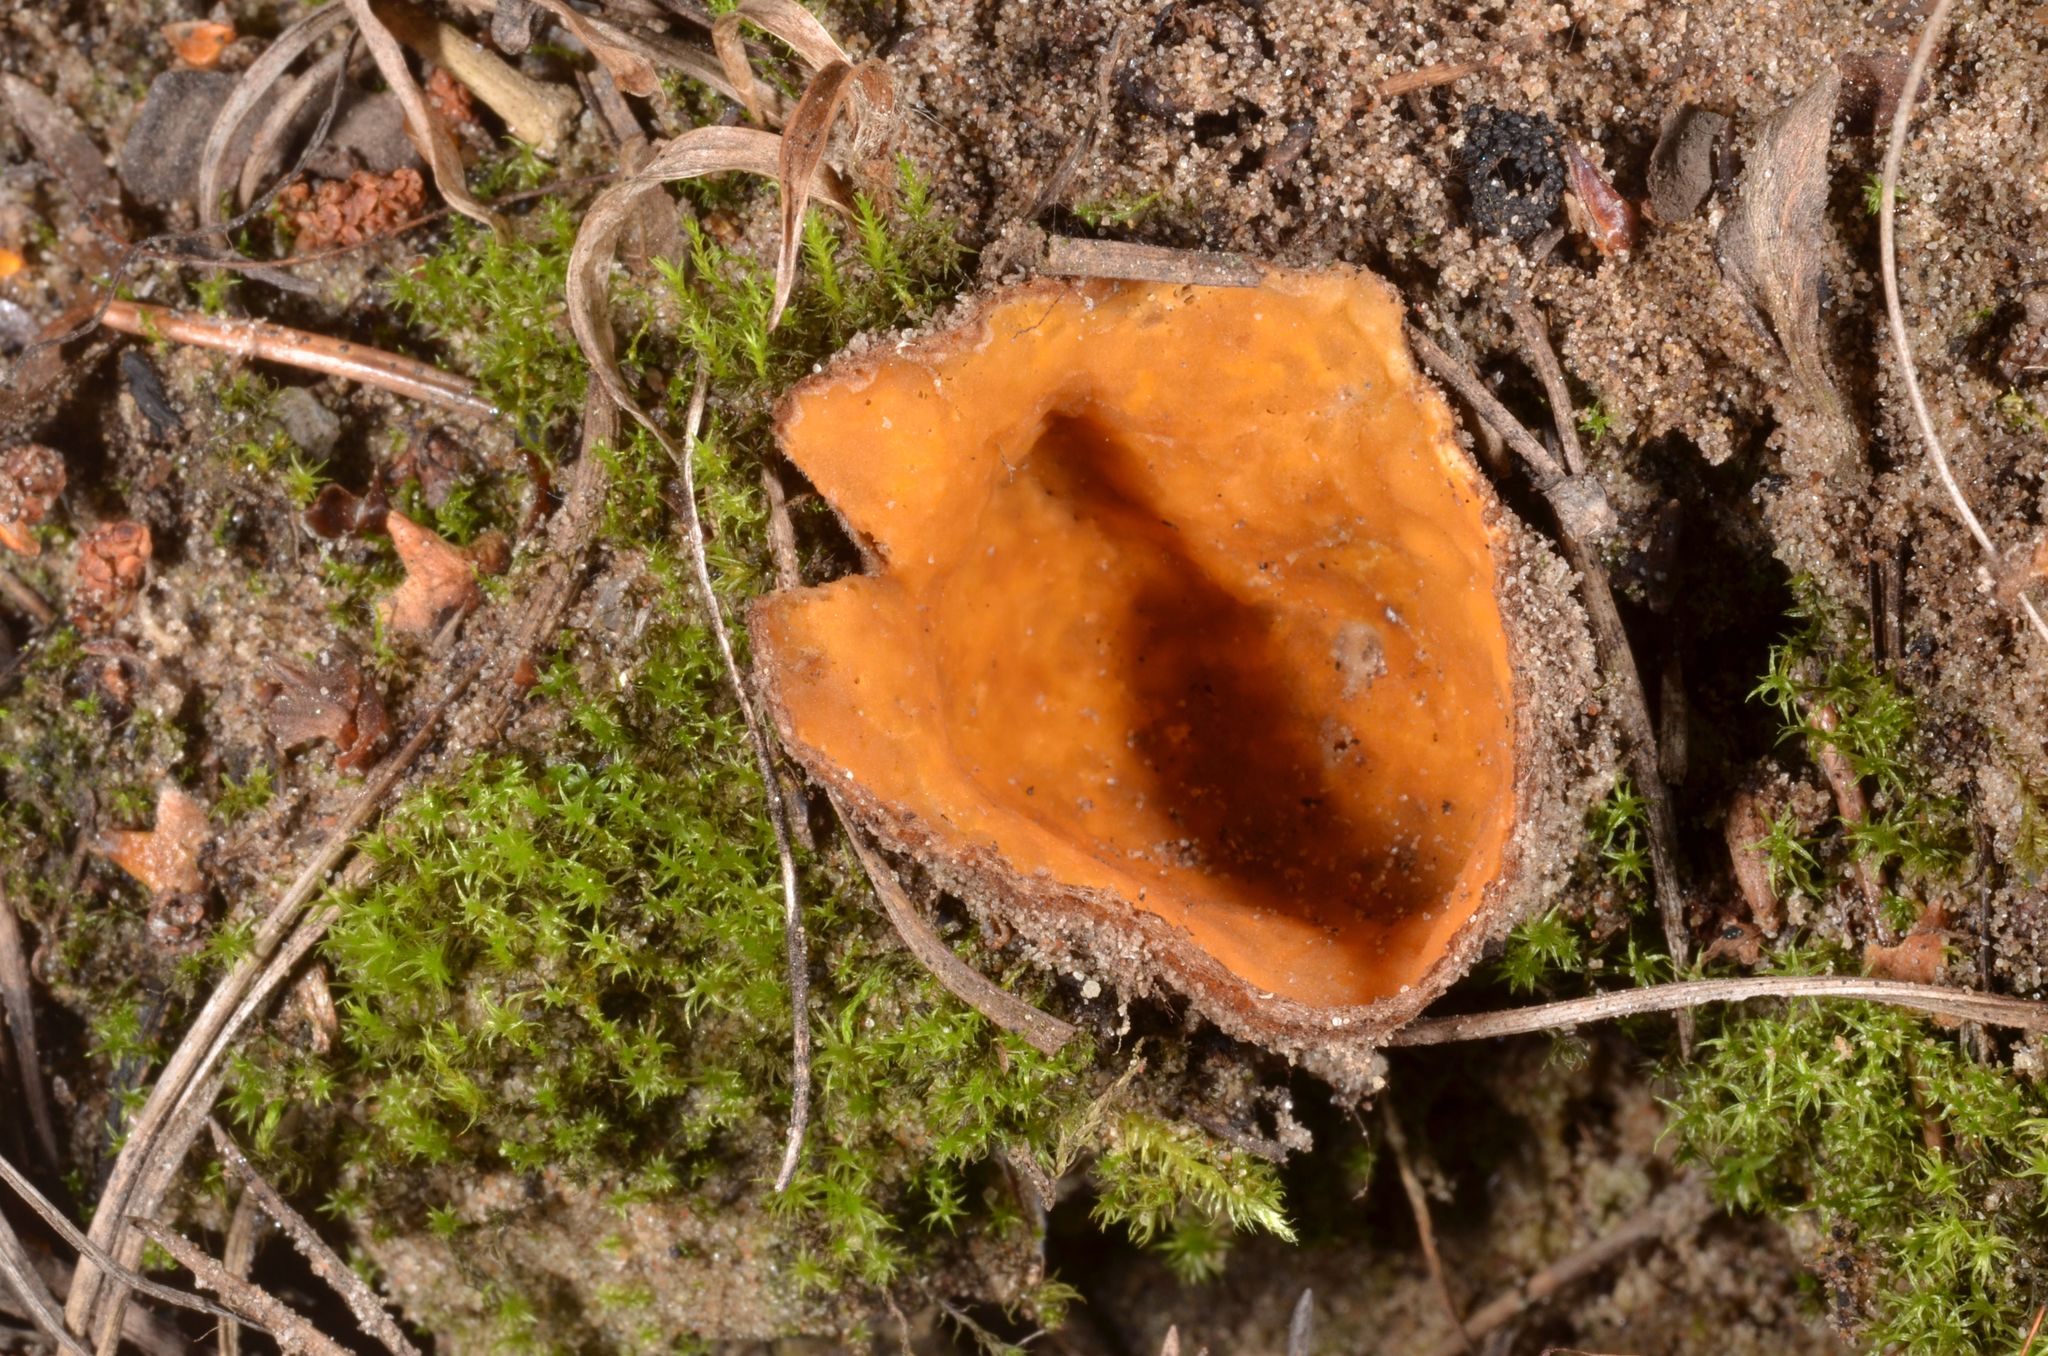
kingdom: Fungi
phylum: Ascomycota
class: Pezizomycetes
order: Pezizales
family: Pyronemataceae
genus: Hoffmannoscypha
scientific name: Hoffmannoscypha pellita
